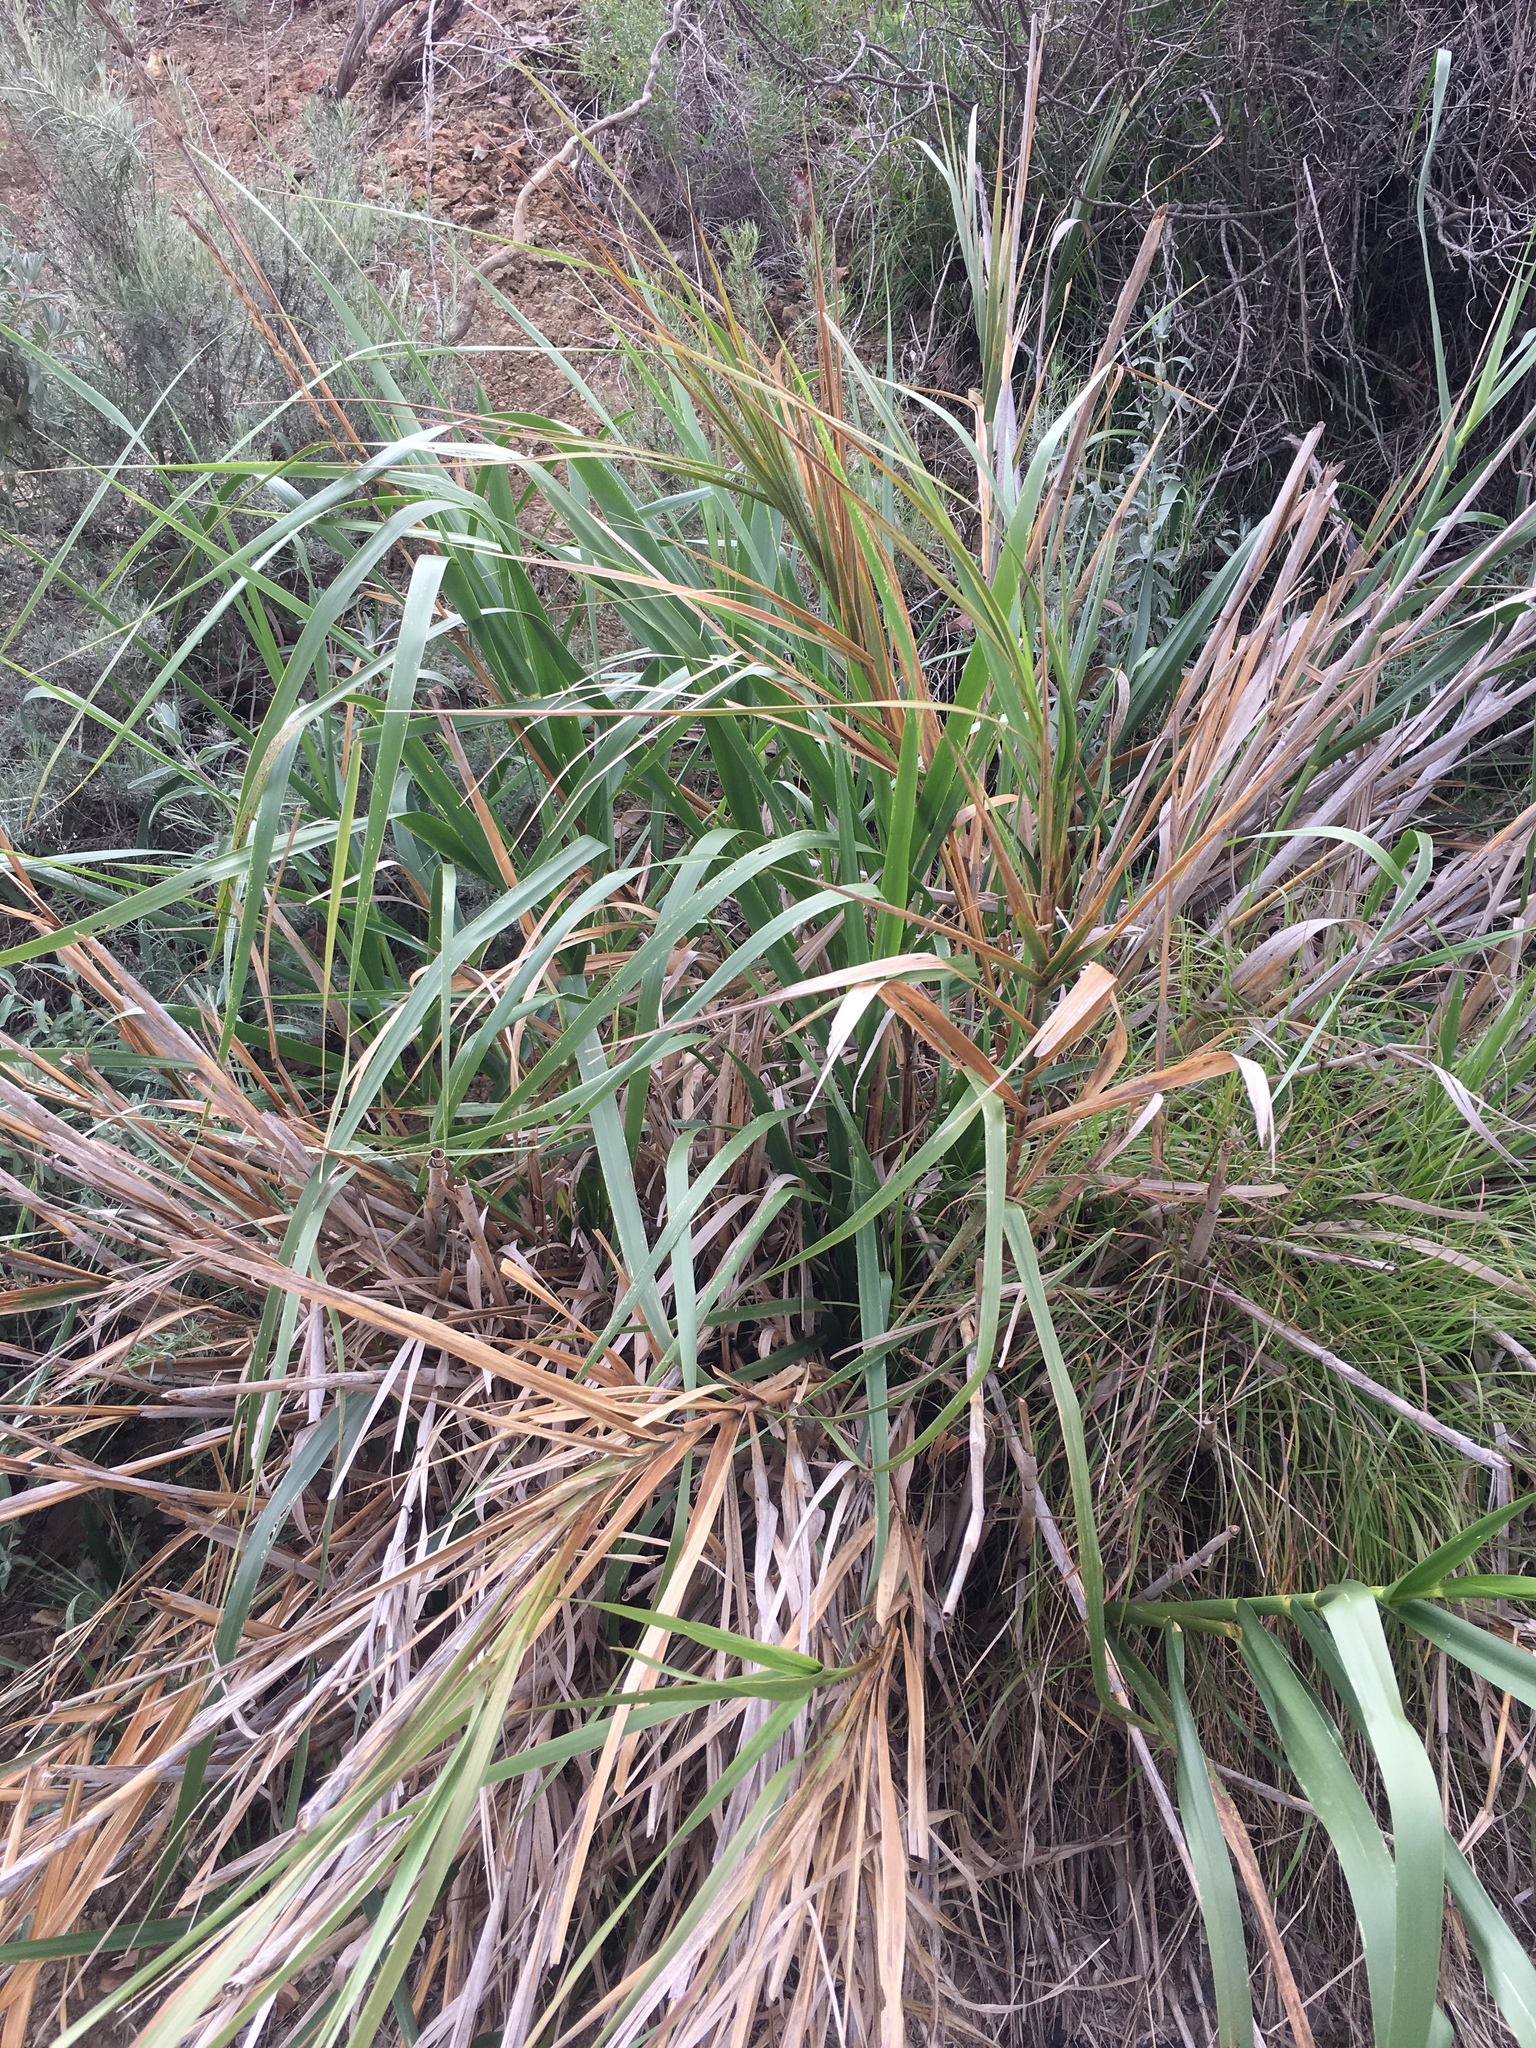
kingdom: Plantae
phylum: Tracheophyta
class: Liliopsida
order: Poales
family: Poaceae
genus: Leymus
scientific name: Leymus condensatus
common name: Giant wild rye
